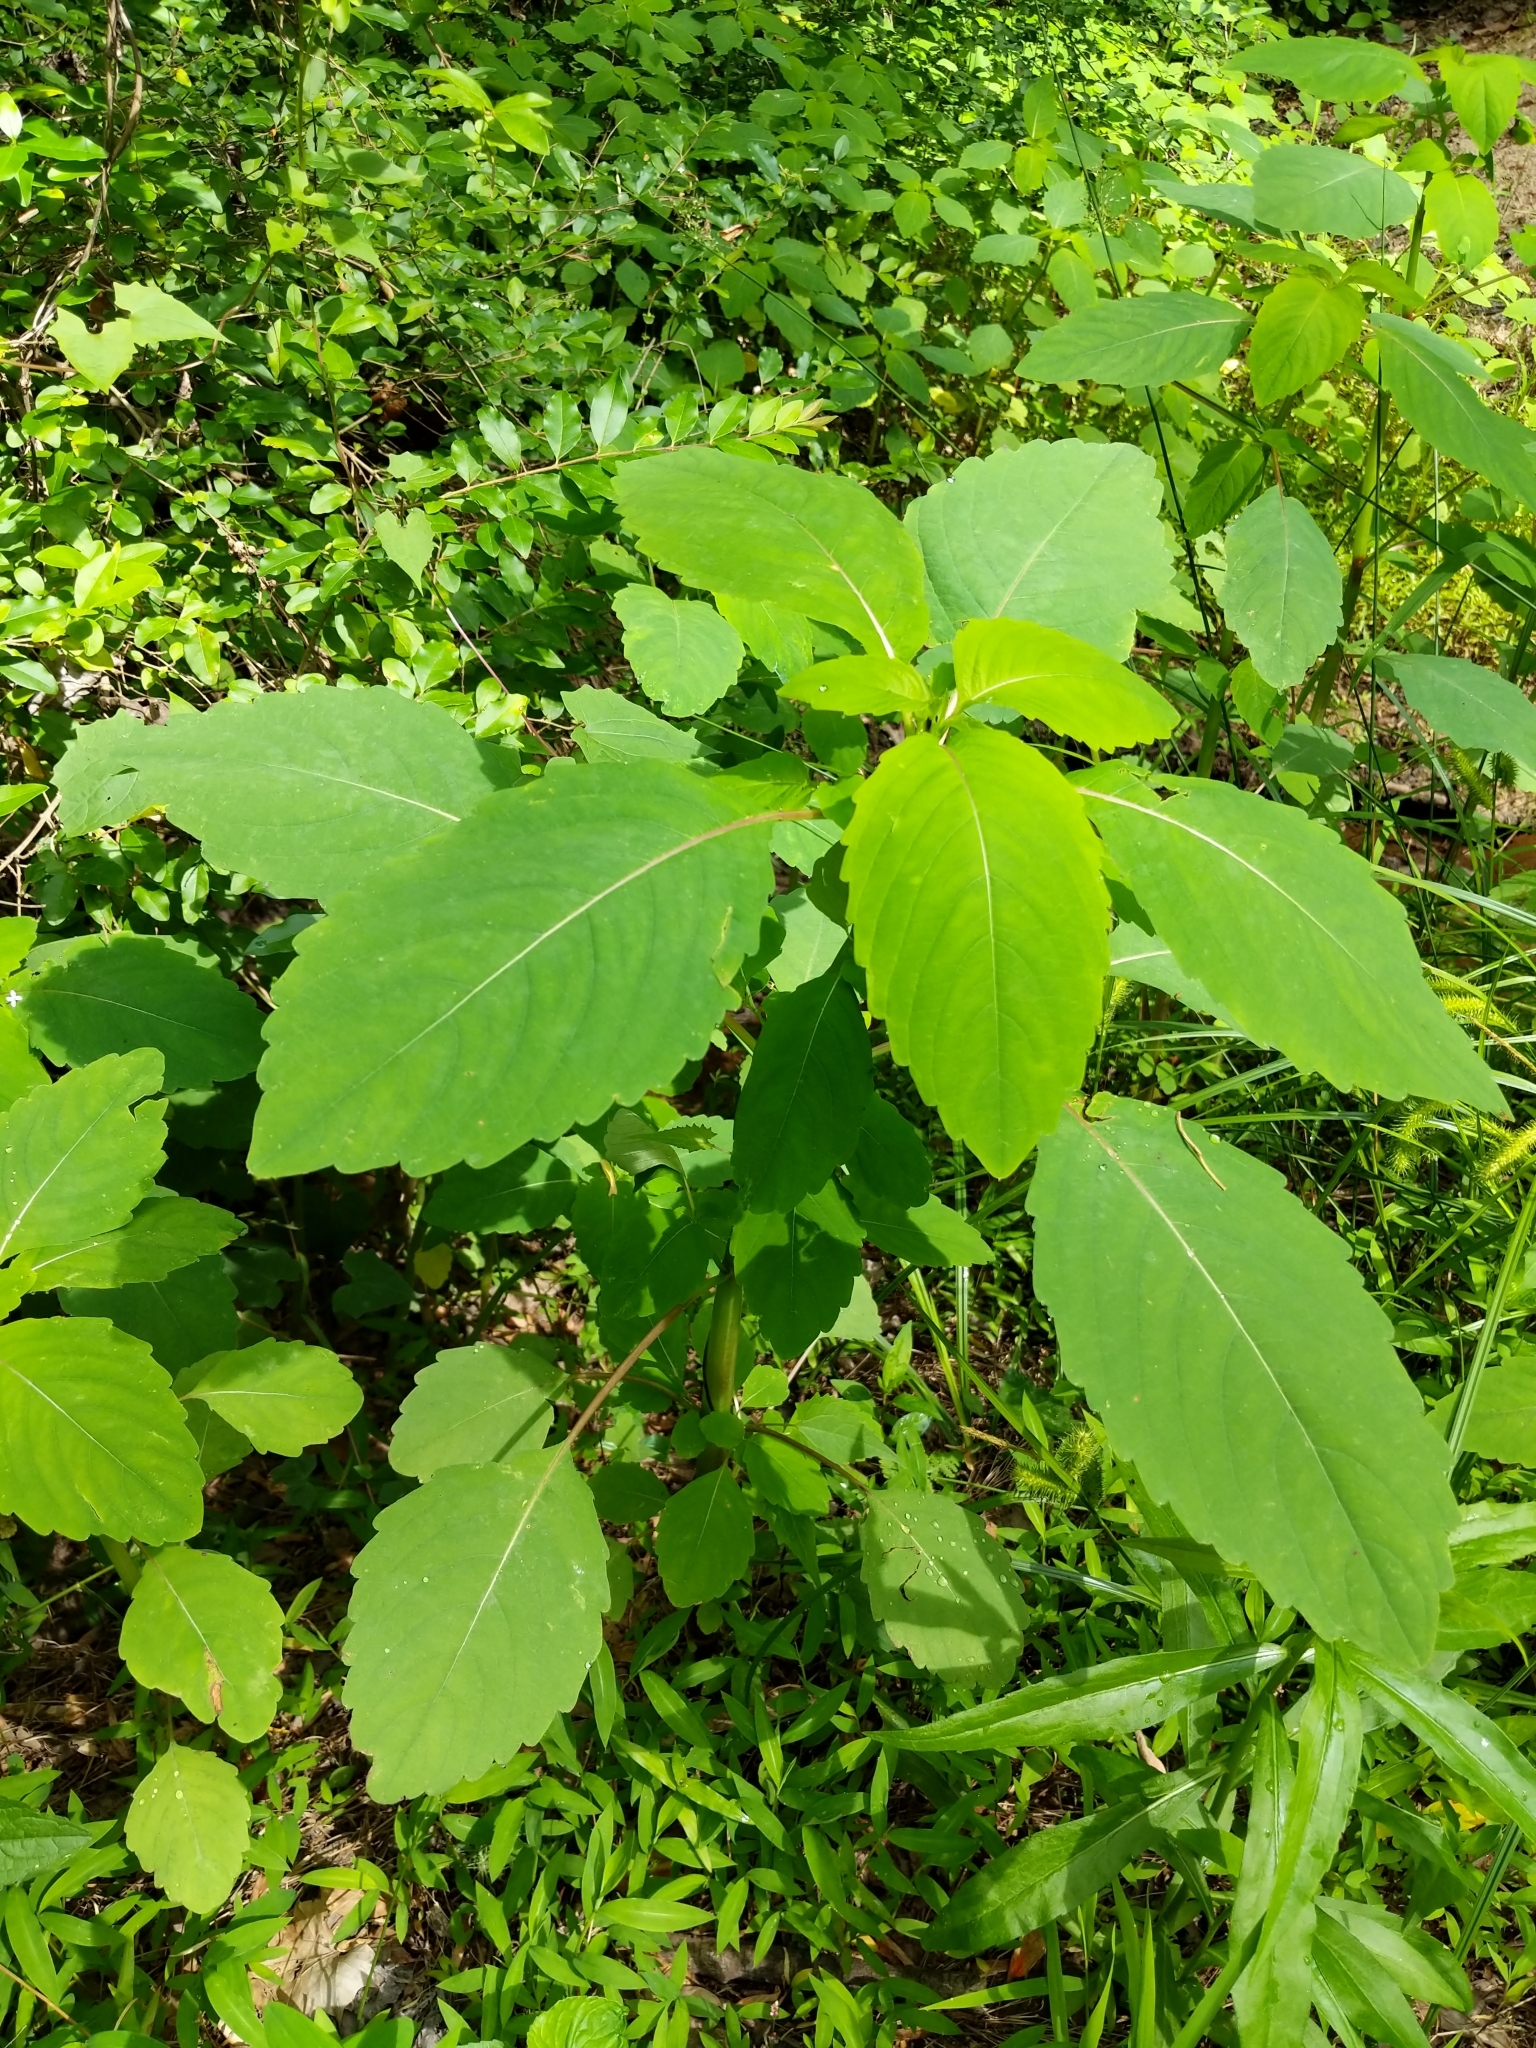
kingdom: Plantae
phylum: Tracheophyta
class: Magnoliopsida
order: Ericales
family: Balsaminaceae
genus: Impatiens
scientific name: Impatiens capensis
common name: Orange balsam
